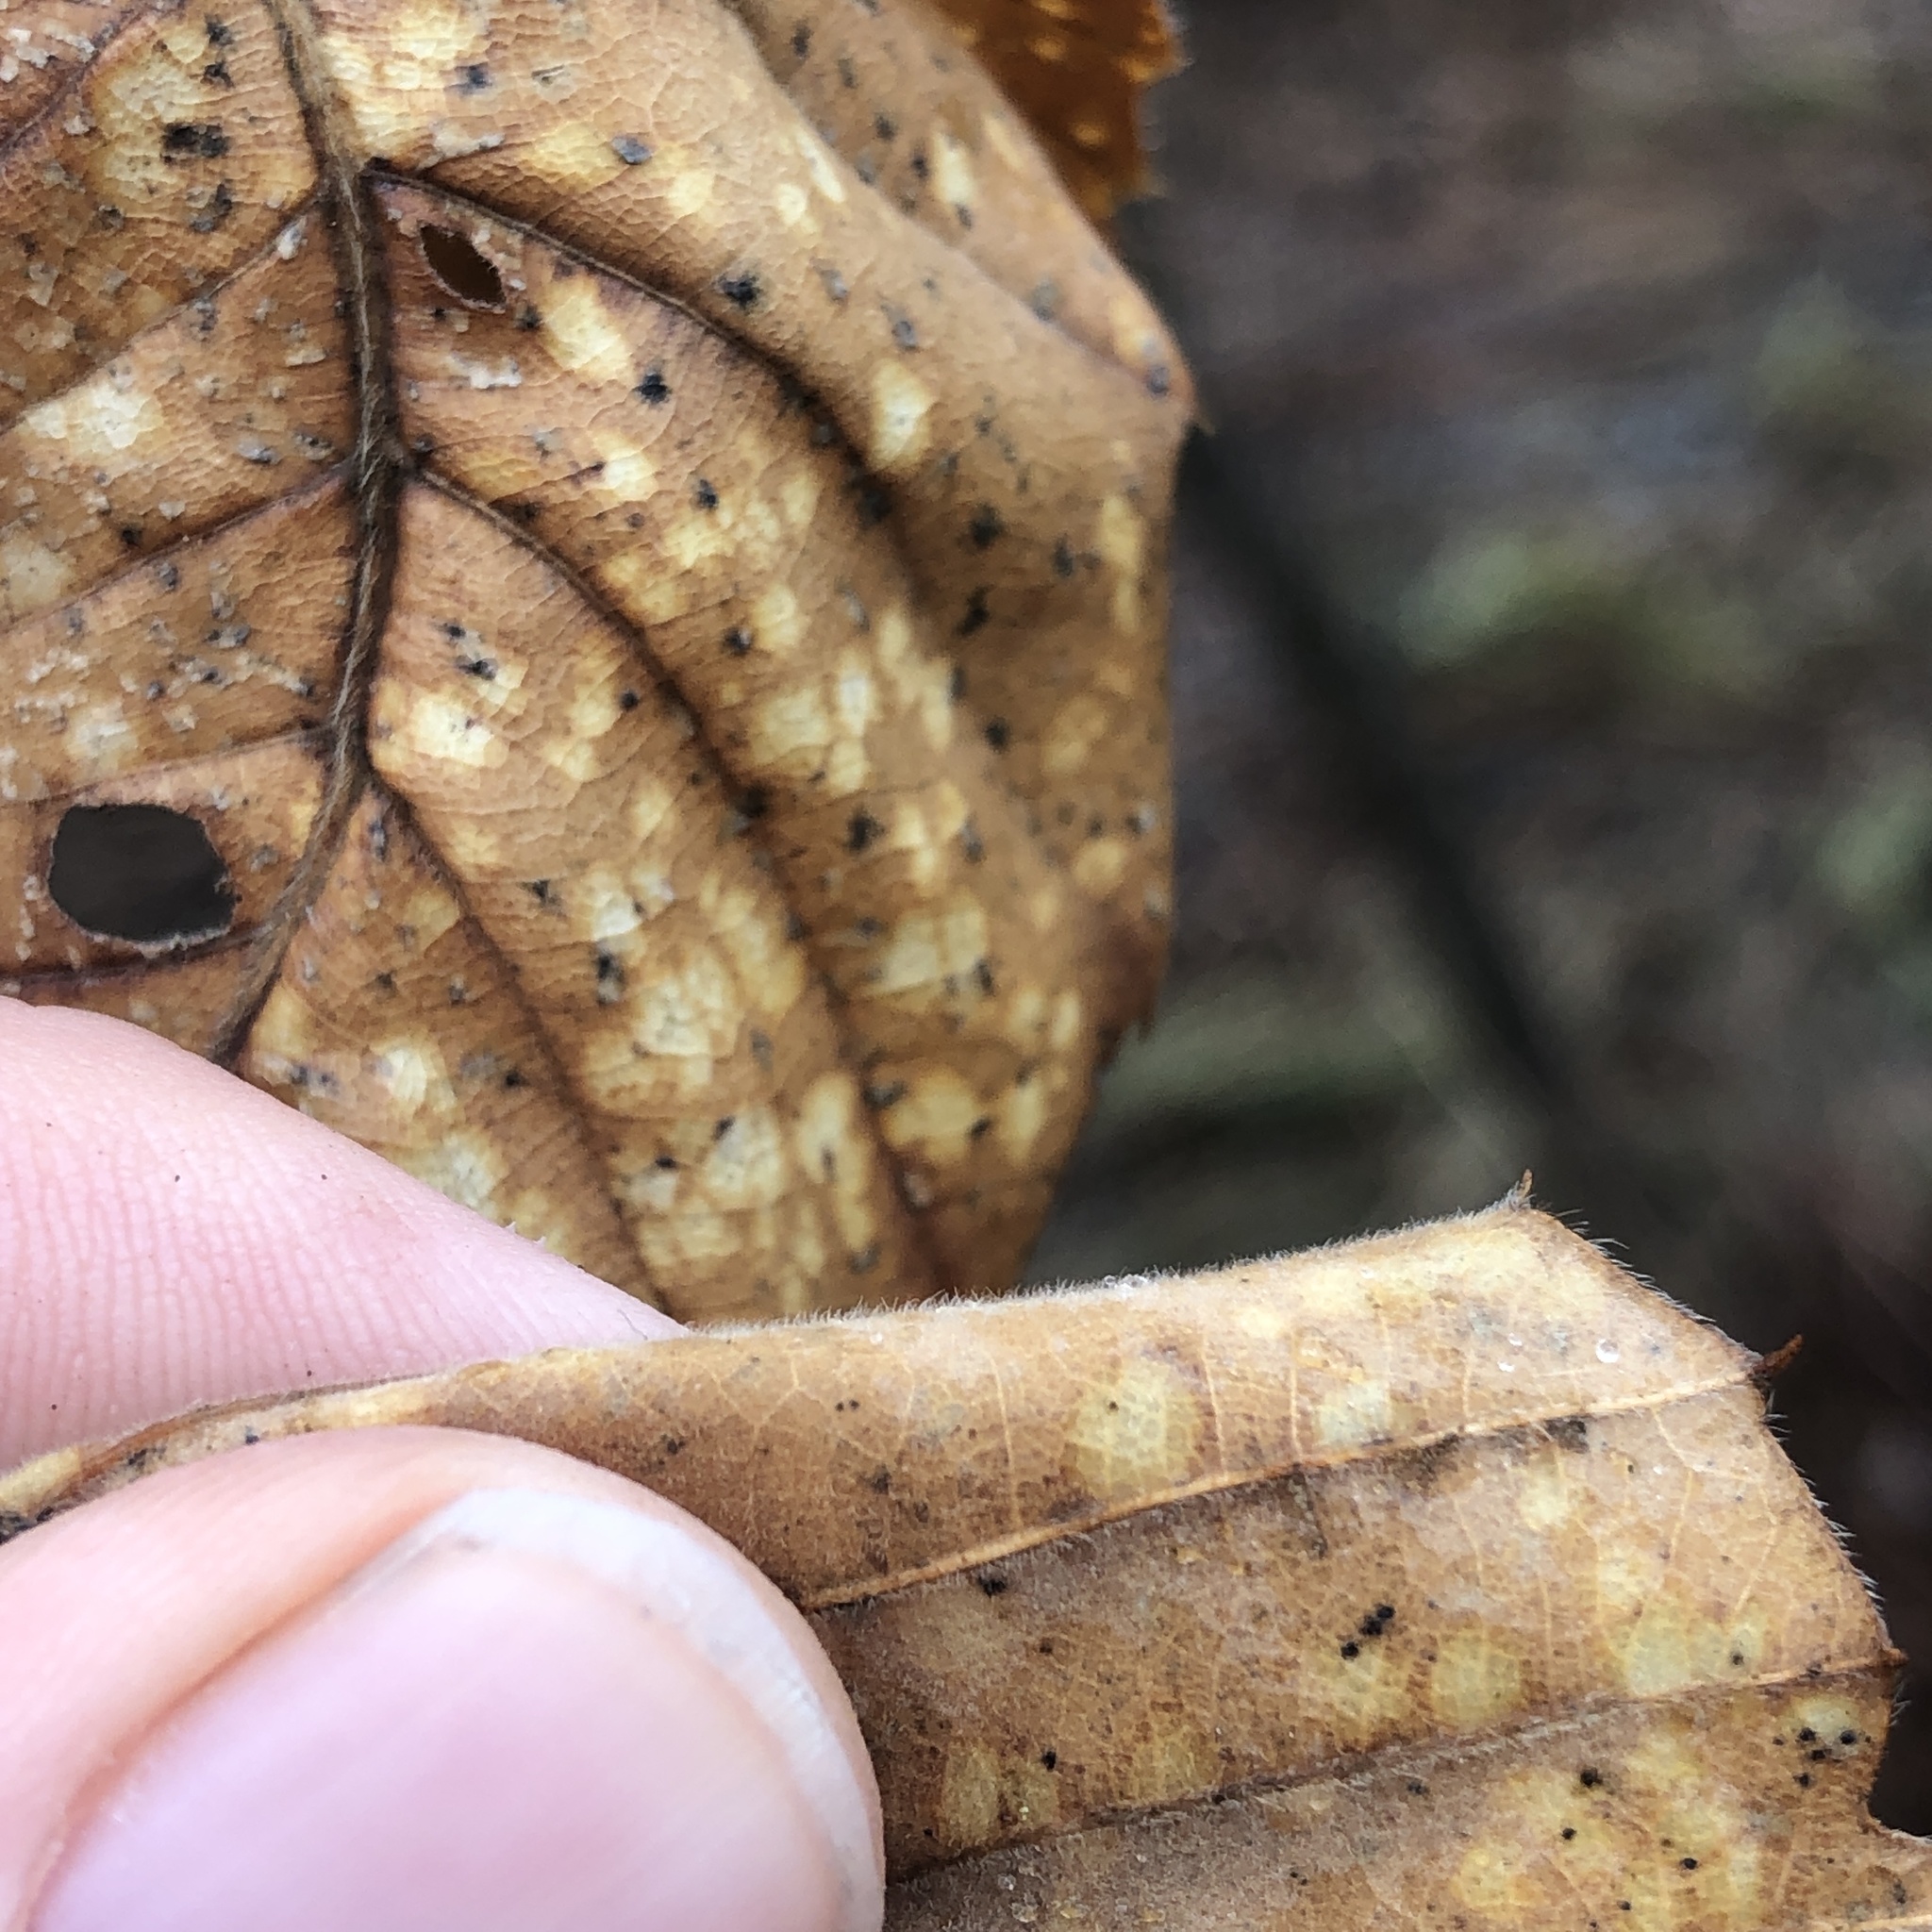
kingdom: Plantae
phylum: Tracheophyta
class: Magnoliopsida
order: Fagales
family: Fagaceae
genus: Castanea
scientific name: Castanea mollissima
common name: Chinese chestnut
